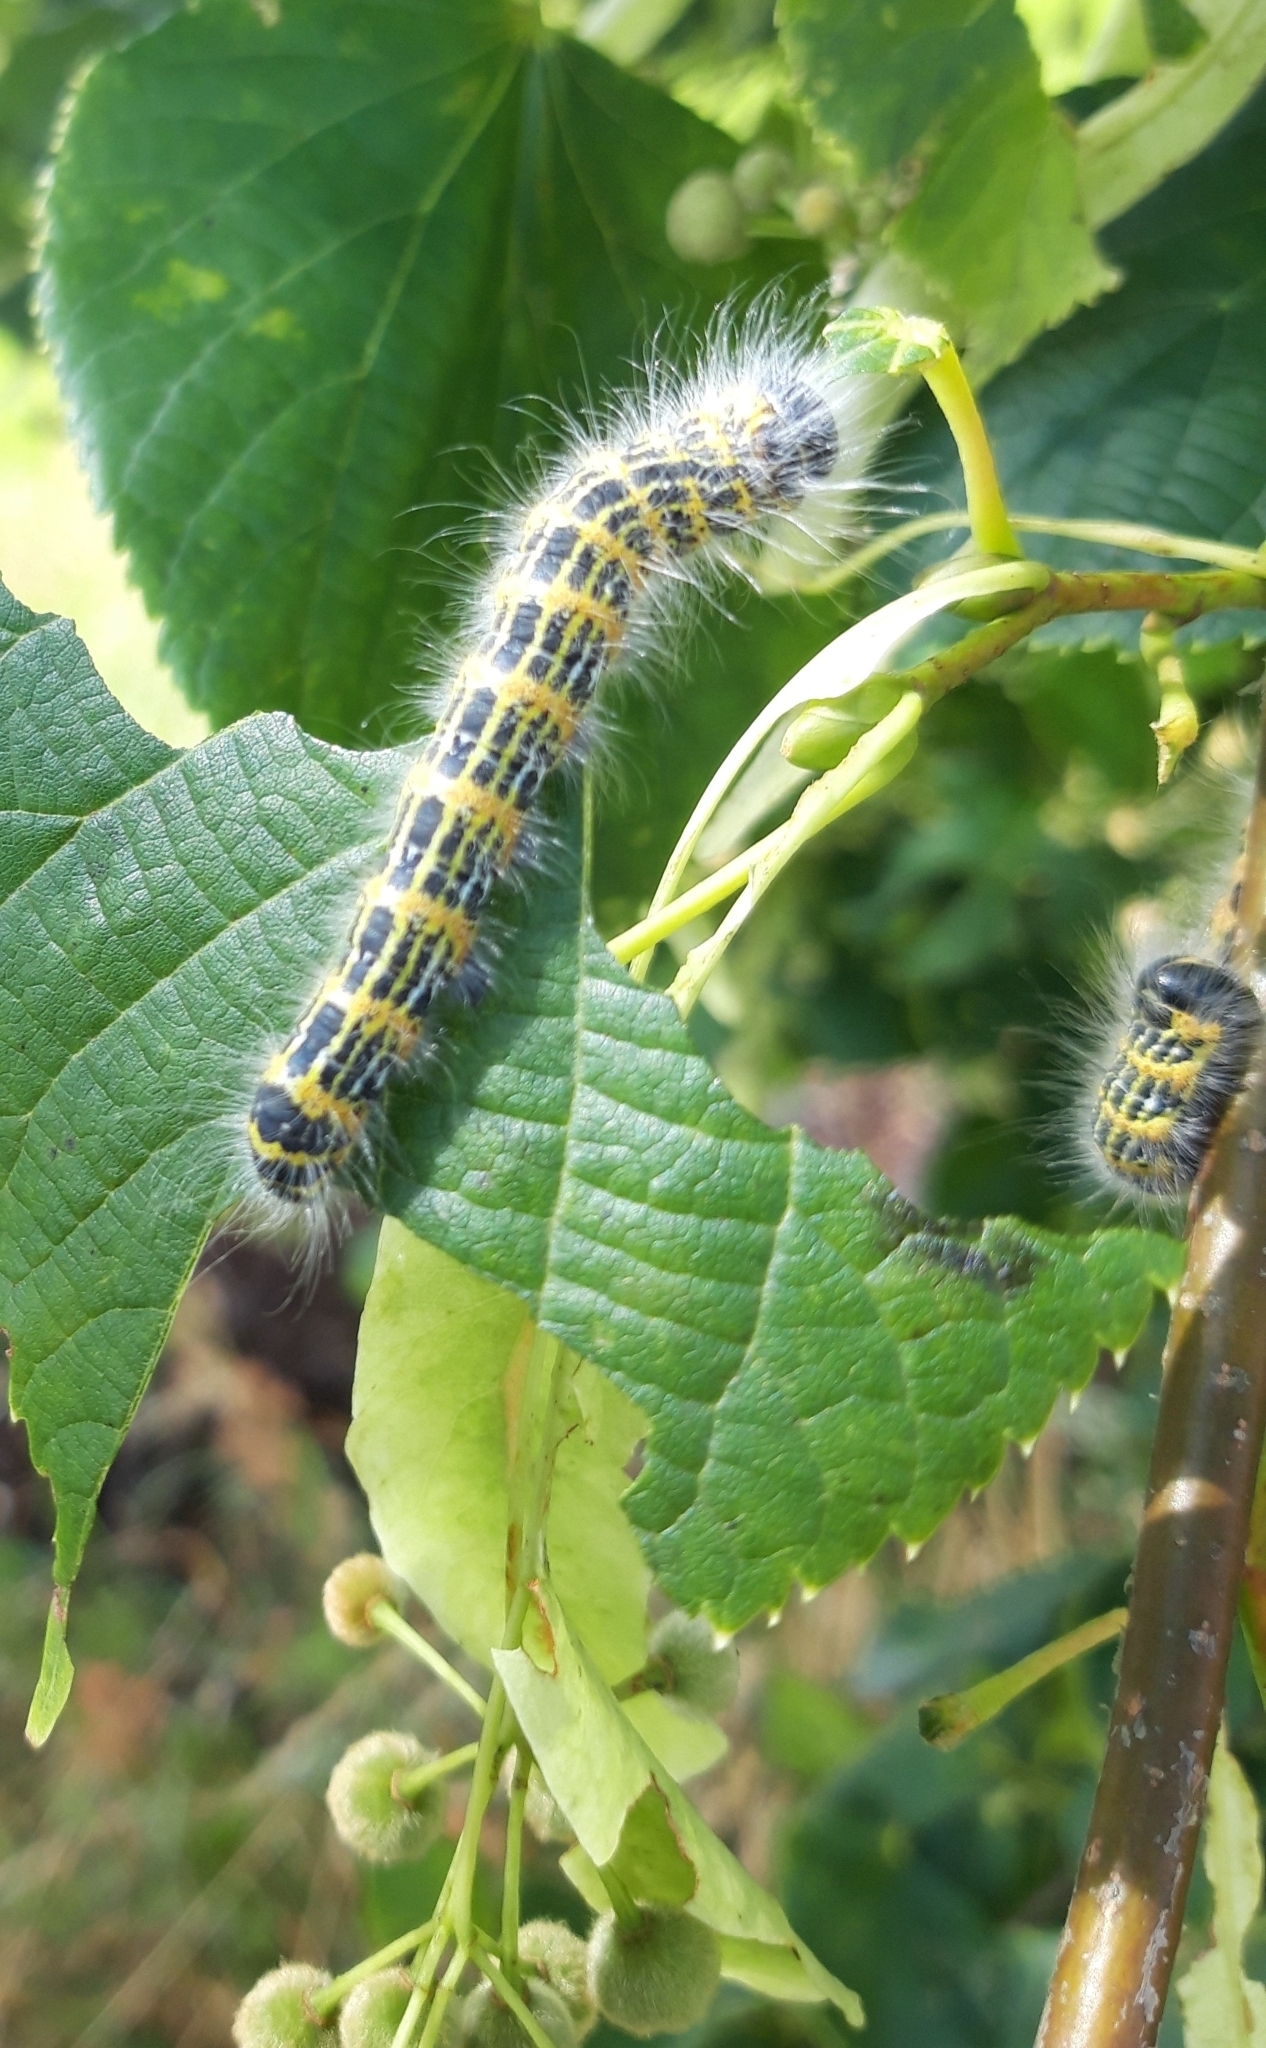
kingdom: Animalia
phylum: Arthropoda
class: Insecta
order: Lepidoptera
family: Notodontidae
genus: Phalera
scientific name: Phalera bucephala
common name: Buff-tip
